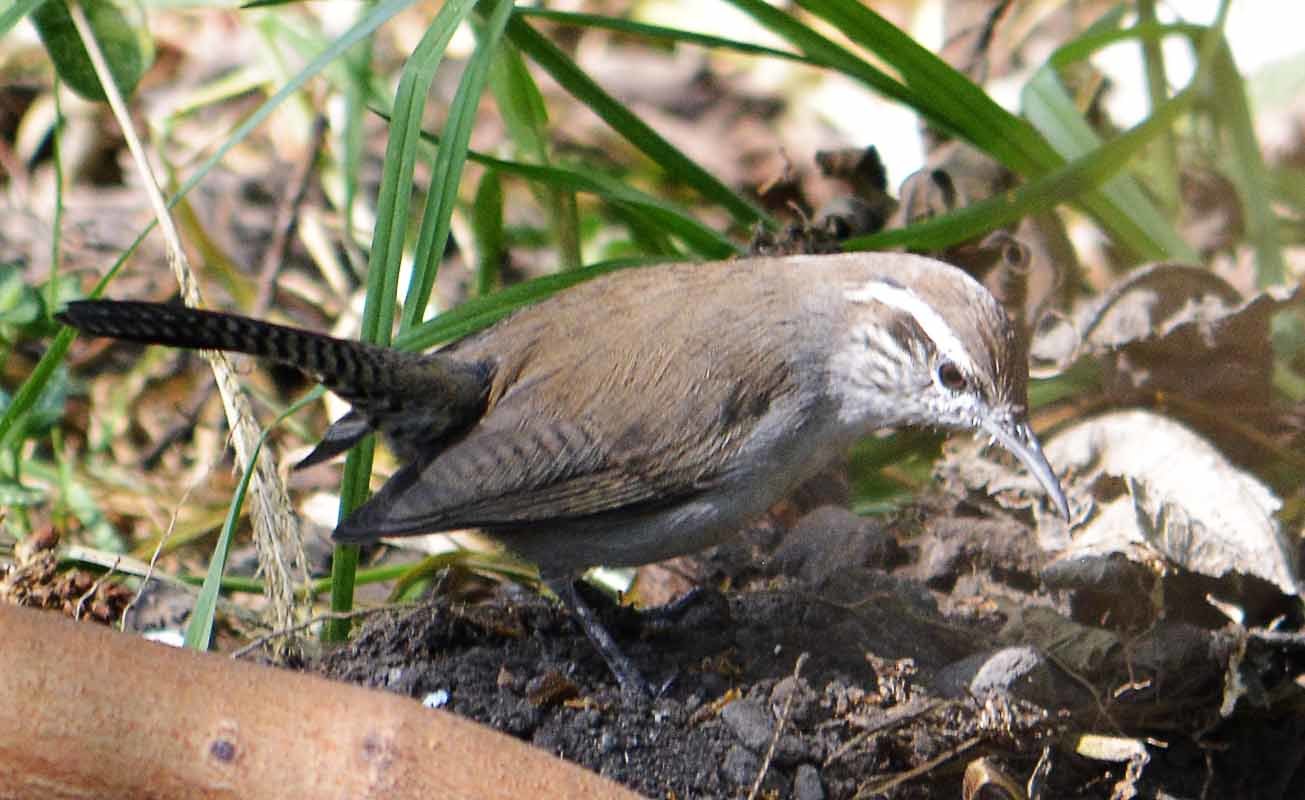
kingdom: Animalia
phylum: Chordata
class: Aves
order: Passeriformes
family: Troglodytidae
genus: Thryomanes
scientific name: Thryomanes bewickii
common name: Bewick's wren
